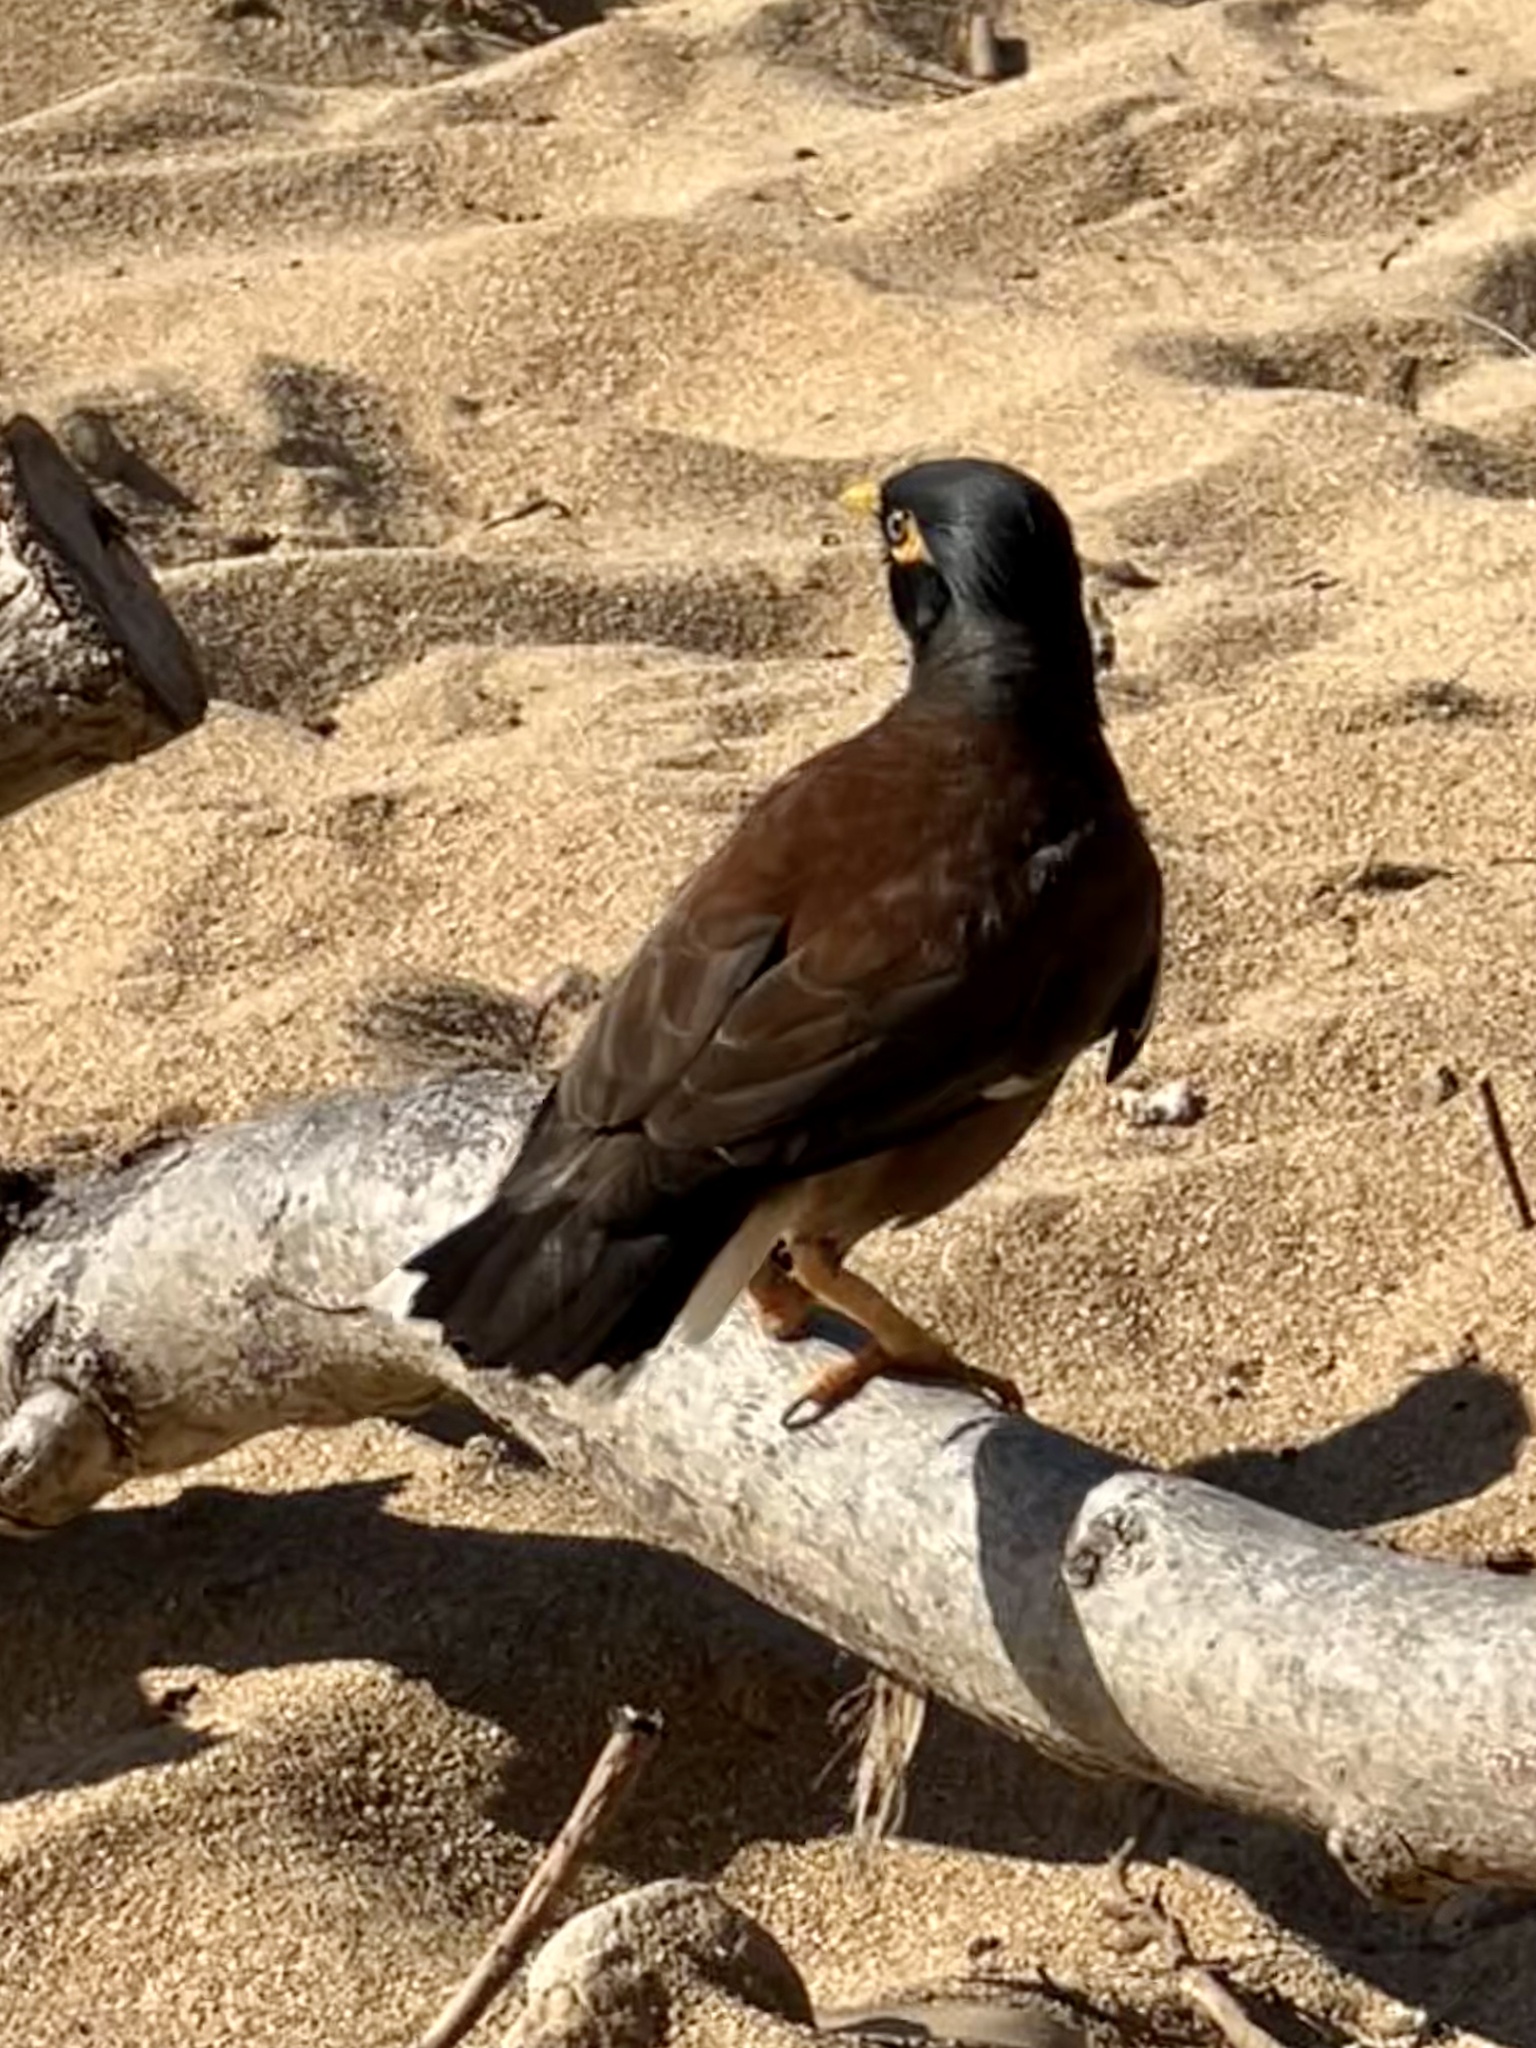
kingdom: Animalia
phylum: Chordata
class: Aves
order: Passeriformes
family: Sturnidae
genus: Acridotheres
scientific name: Acridotheres tristis
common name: Common myna
